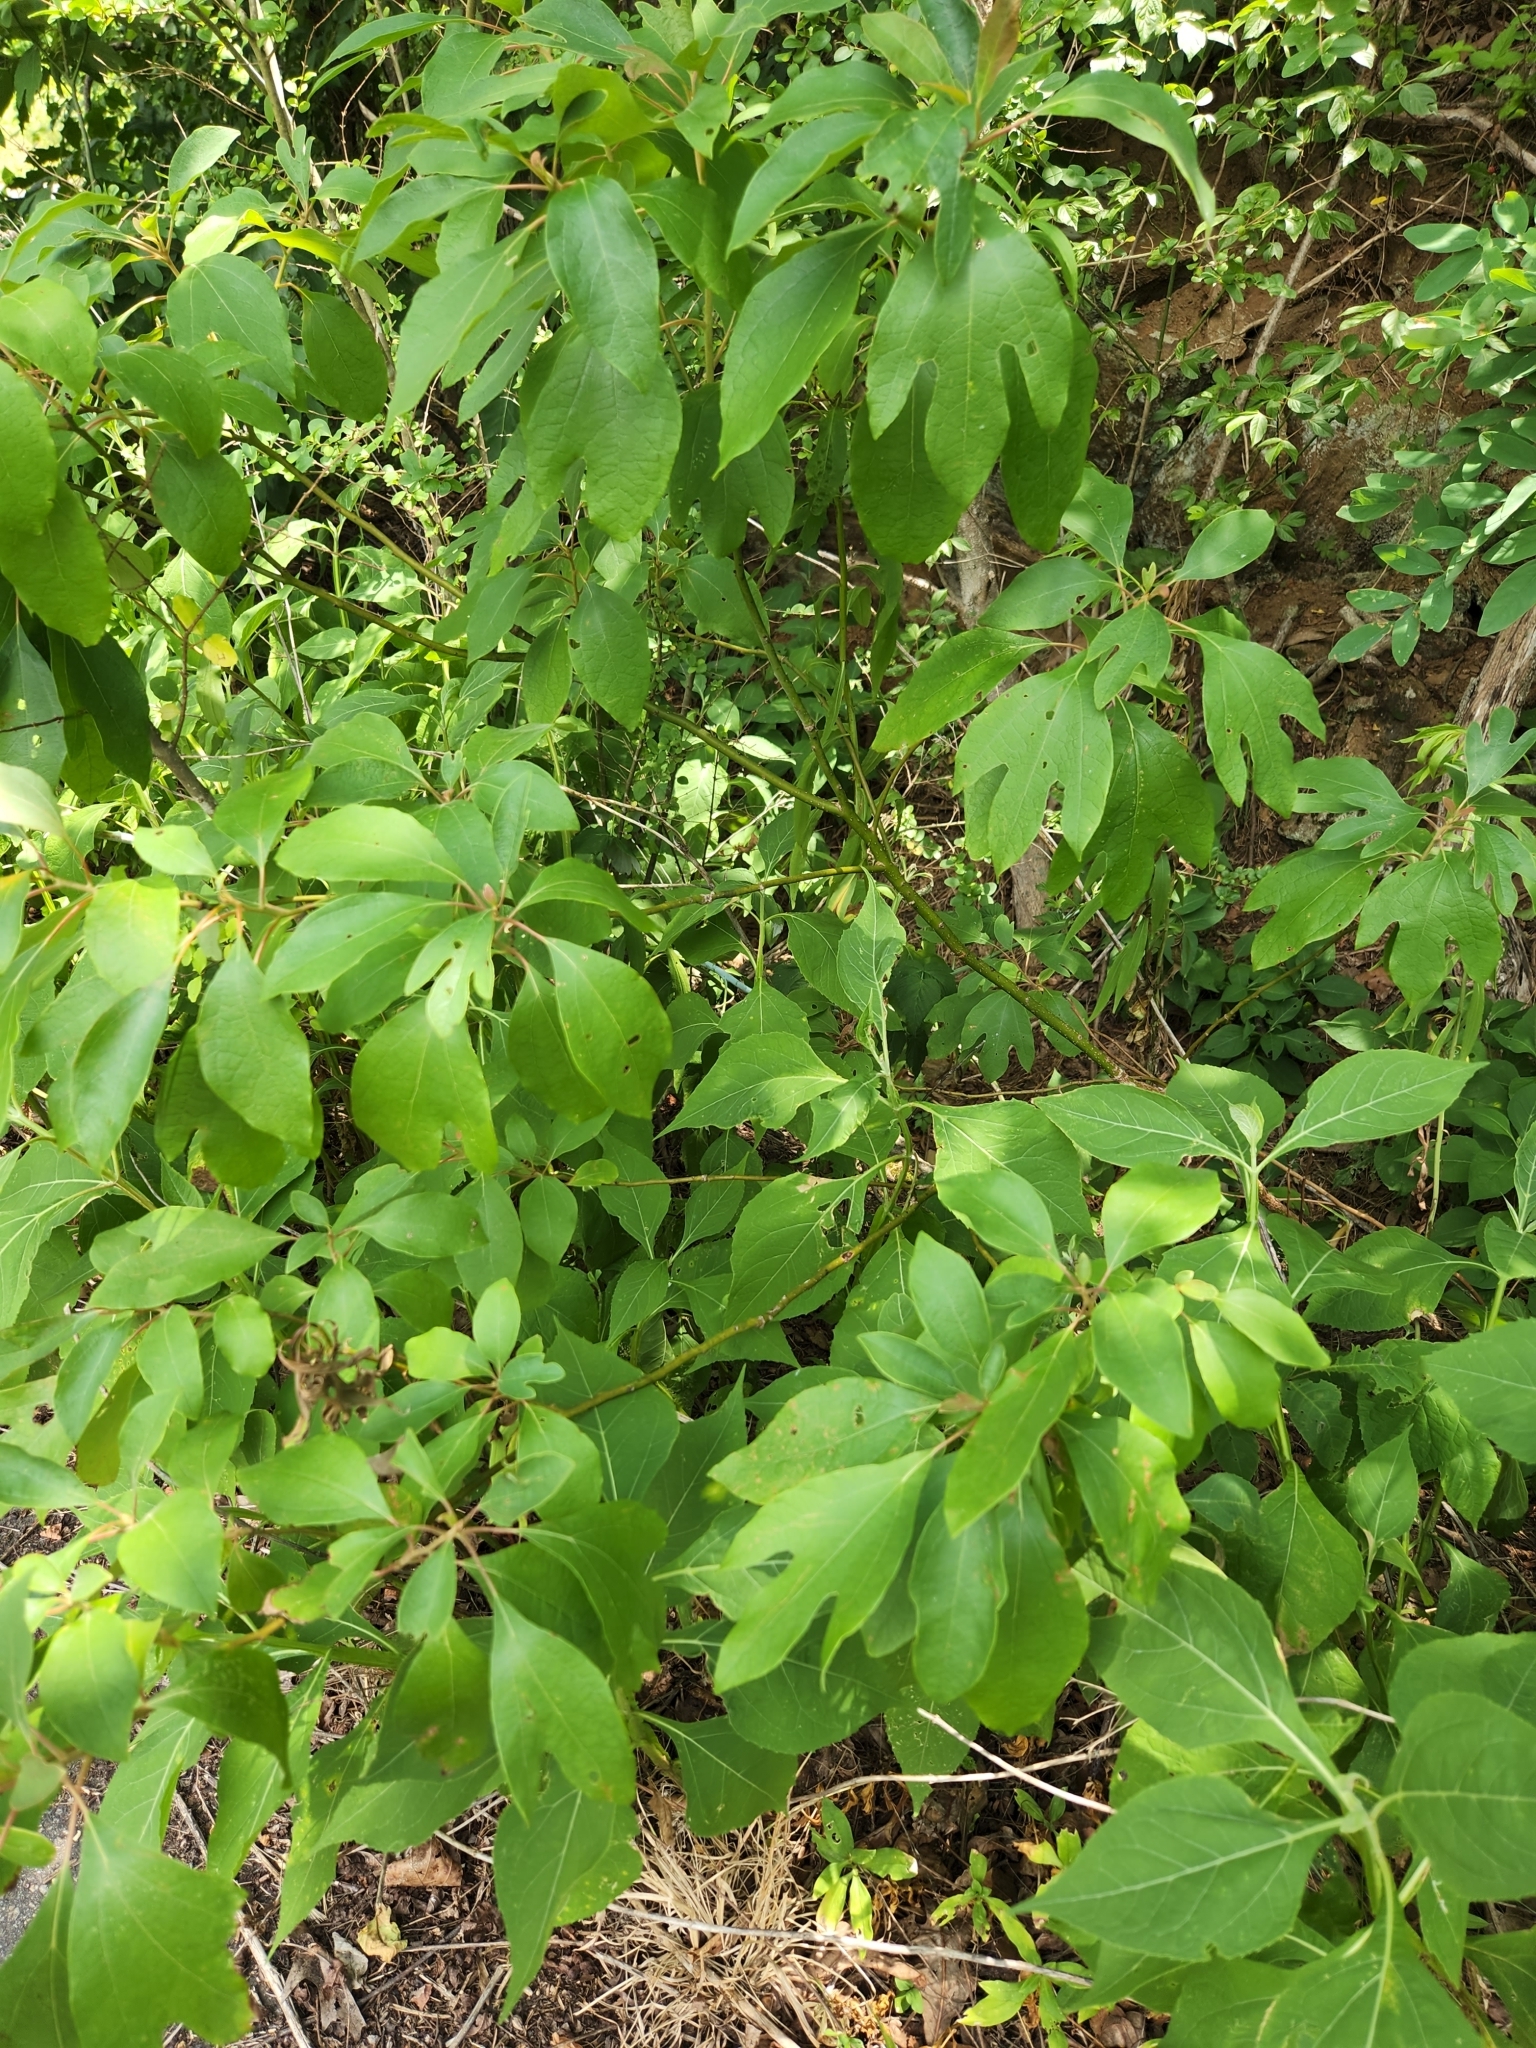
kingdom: Plantae
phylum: Tracheophyta
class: Magnoliopsida
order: Laurales
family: Lauraceae
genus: Sassafras
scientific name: Sassafras albidum
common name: Sassafras
